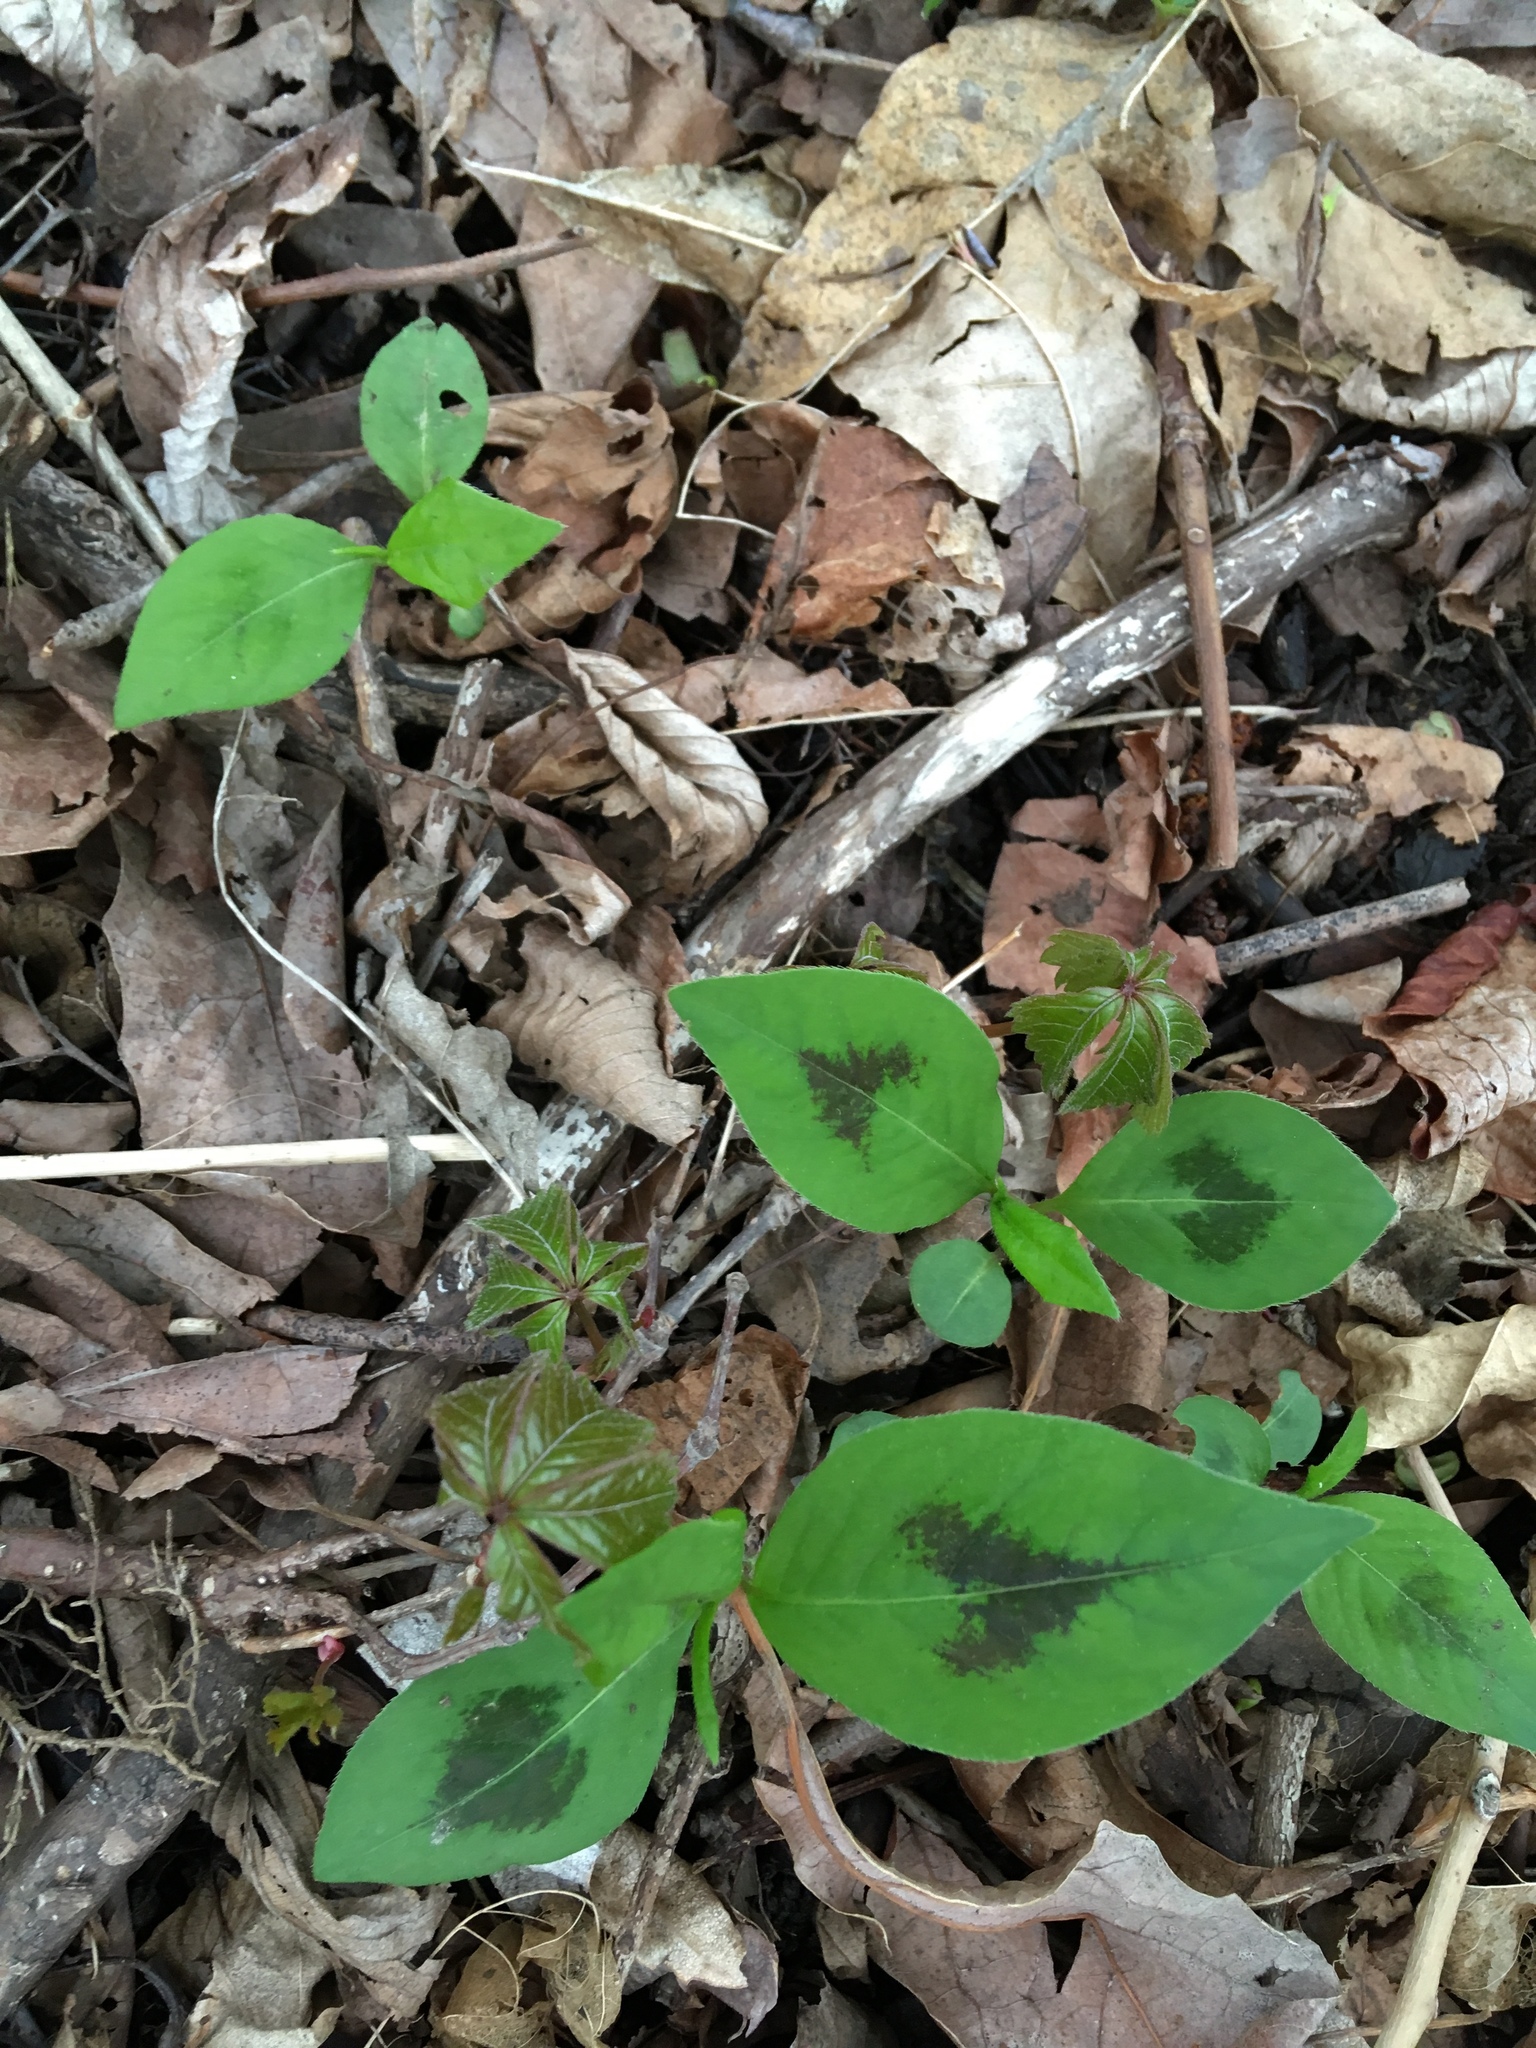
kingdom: Plantae
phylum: Tracheophyta
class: Magnoliopsida
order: Caryophyllales
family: Polygonaceae
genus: Persicaria
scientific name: Persicaria virginiana
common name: Jumpseed
